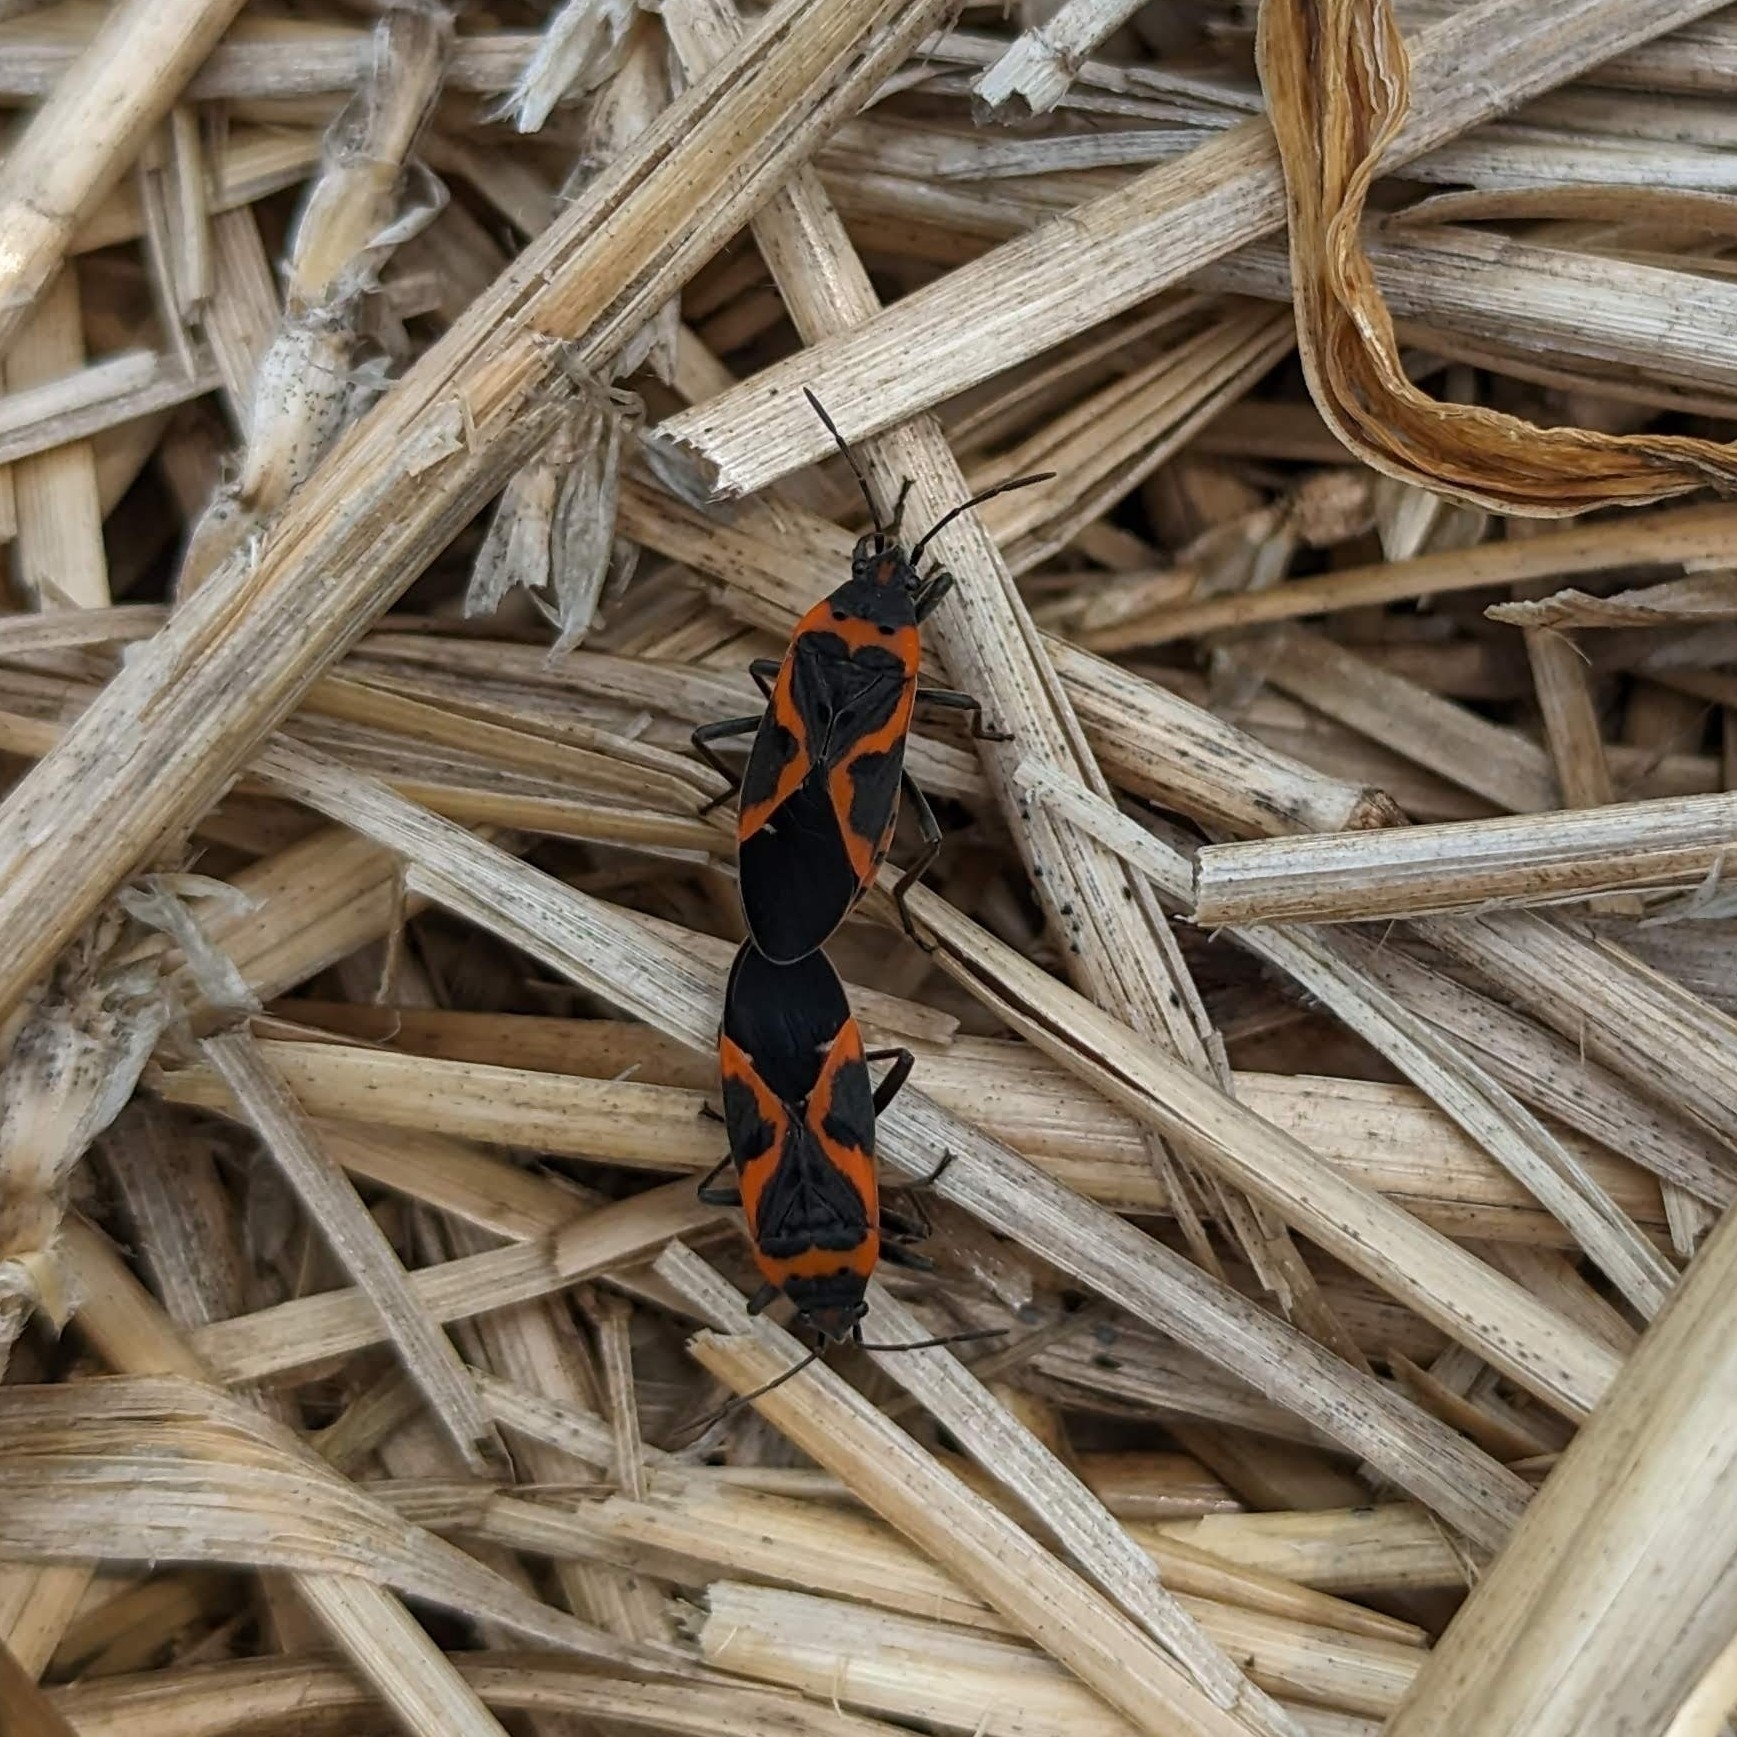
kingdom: Animalia
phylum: Arthropoda
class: Insecta
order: Hemiptera
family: Lygaeidae
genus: Lygaeus
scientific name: Lygaeus kalmii
